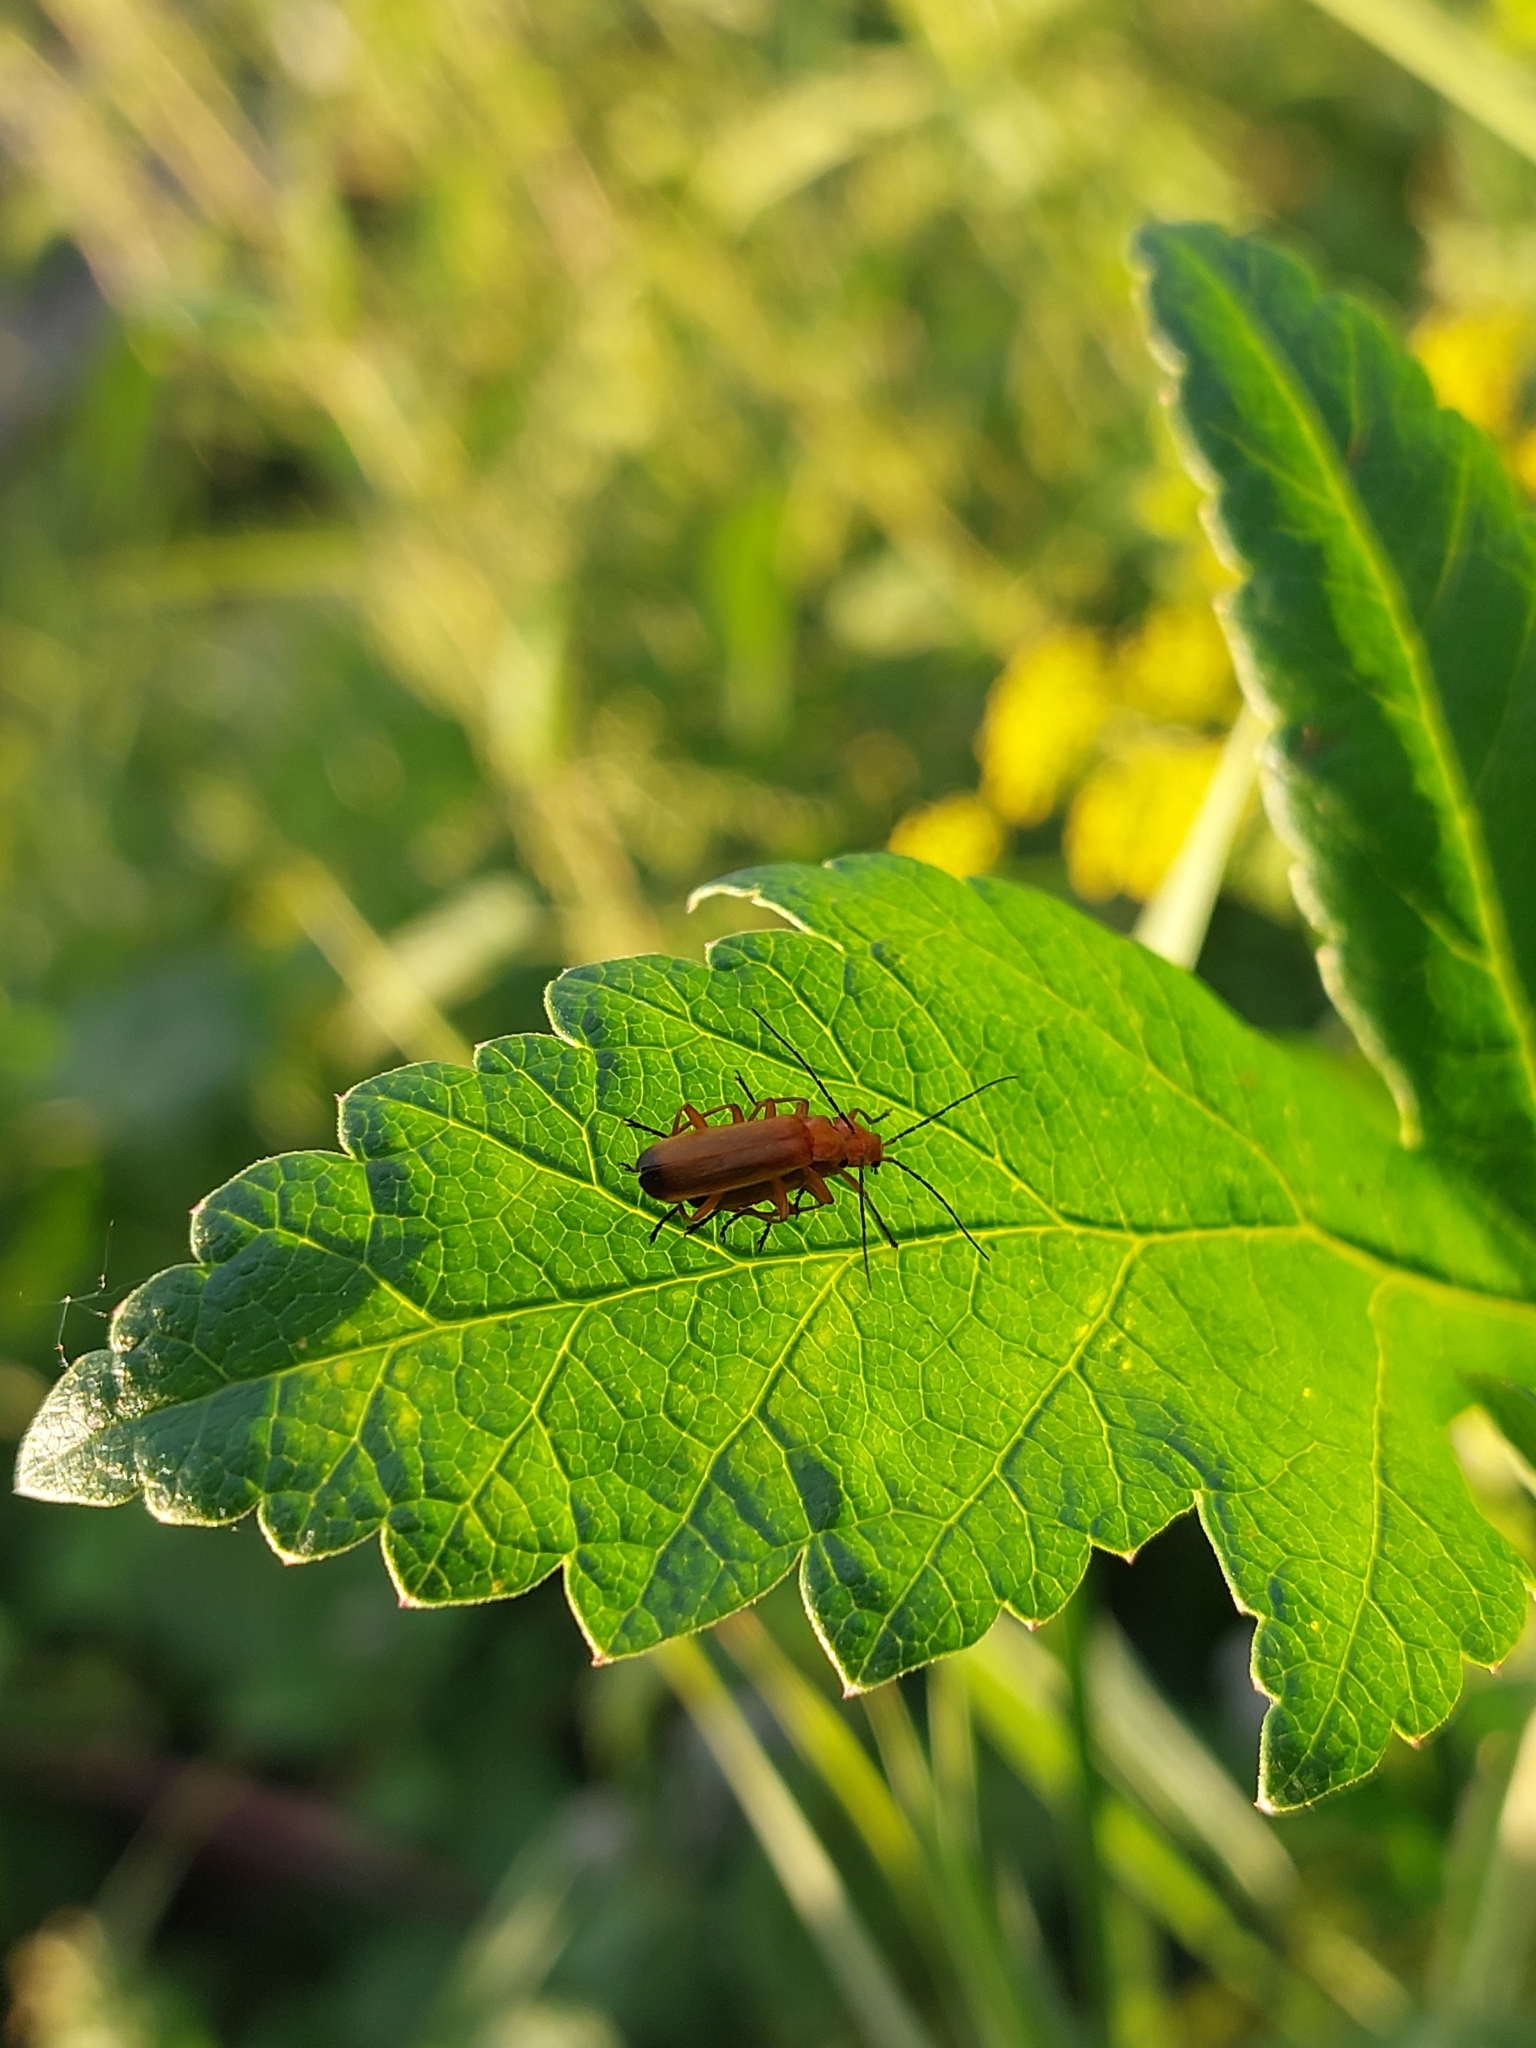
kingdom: Animalia
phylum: Arthropoda
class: Insecta
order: Coleoptera
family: Cantharidae
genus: Rhagonycha
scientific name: Rhagonycha fulva
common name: Common red soldier beetle
